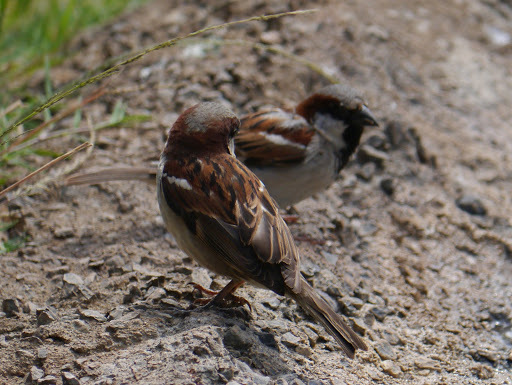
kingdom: Animalia
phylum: Chordata
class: Aves
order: Passeriformes
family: Passeridae
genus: Passer
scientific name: Passer domesticus
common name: House sparrow
